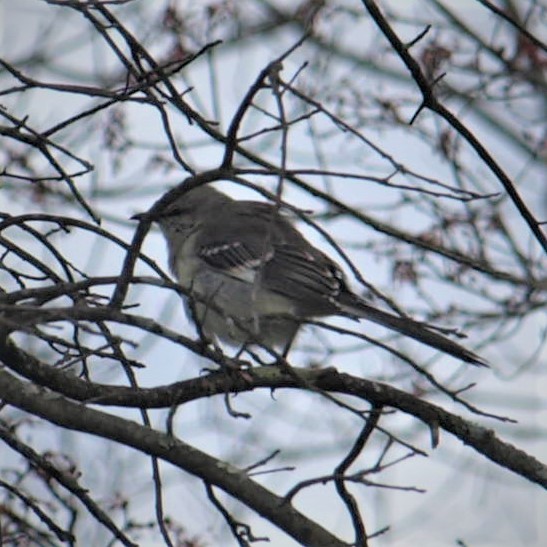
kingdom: Animalia
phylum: Chordata
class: Aves
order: Passeriformes
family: Mimidae
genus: Mimus
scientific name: Mimus polyglottos
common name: Northern mockingbird
